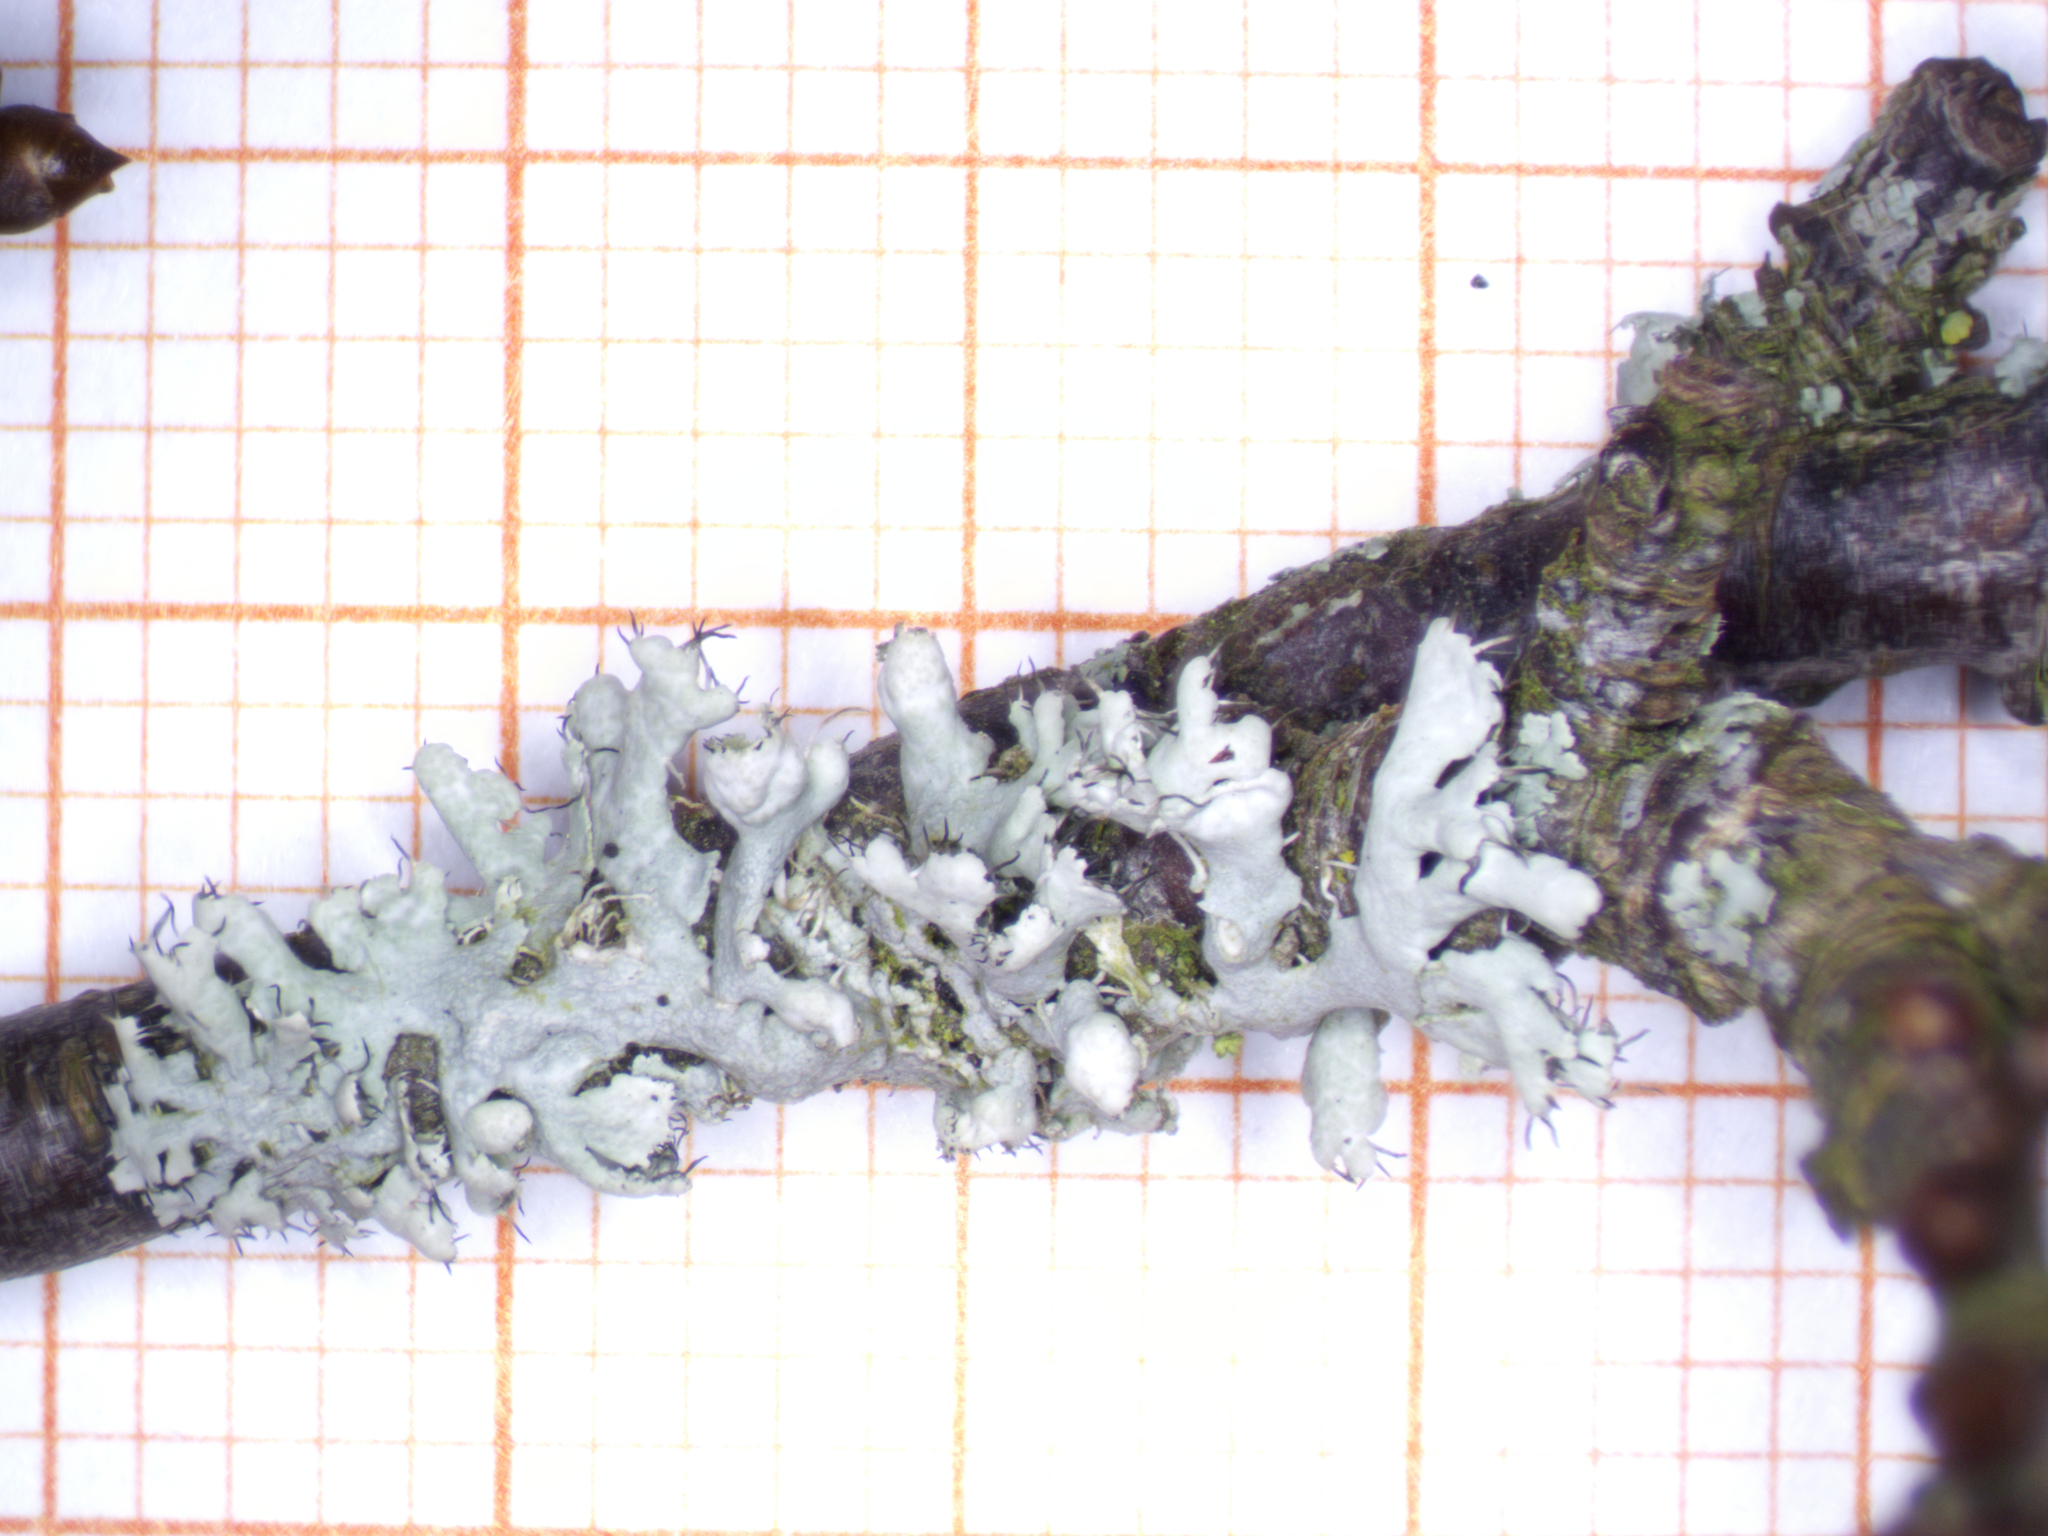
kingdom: Fungi
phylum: Ascomycota
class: Lecanoromycetes
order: Caliciales
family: Physciaceae
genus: Physcia
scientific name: Physcia adscendens
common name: Hooded rosette lichen
